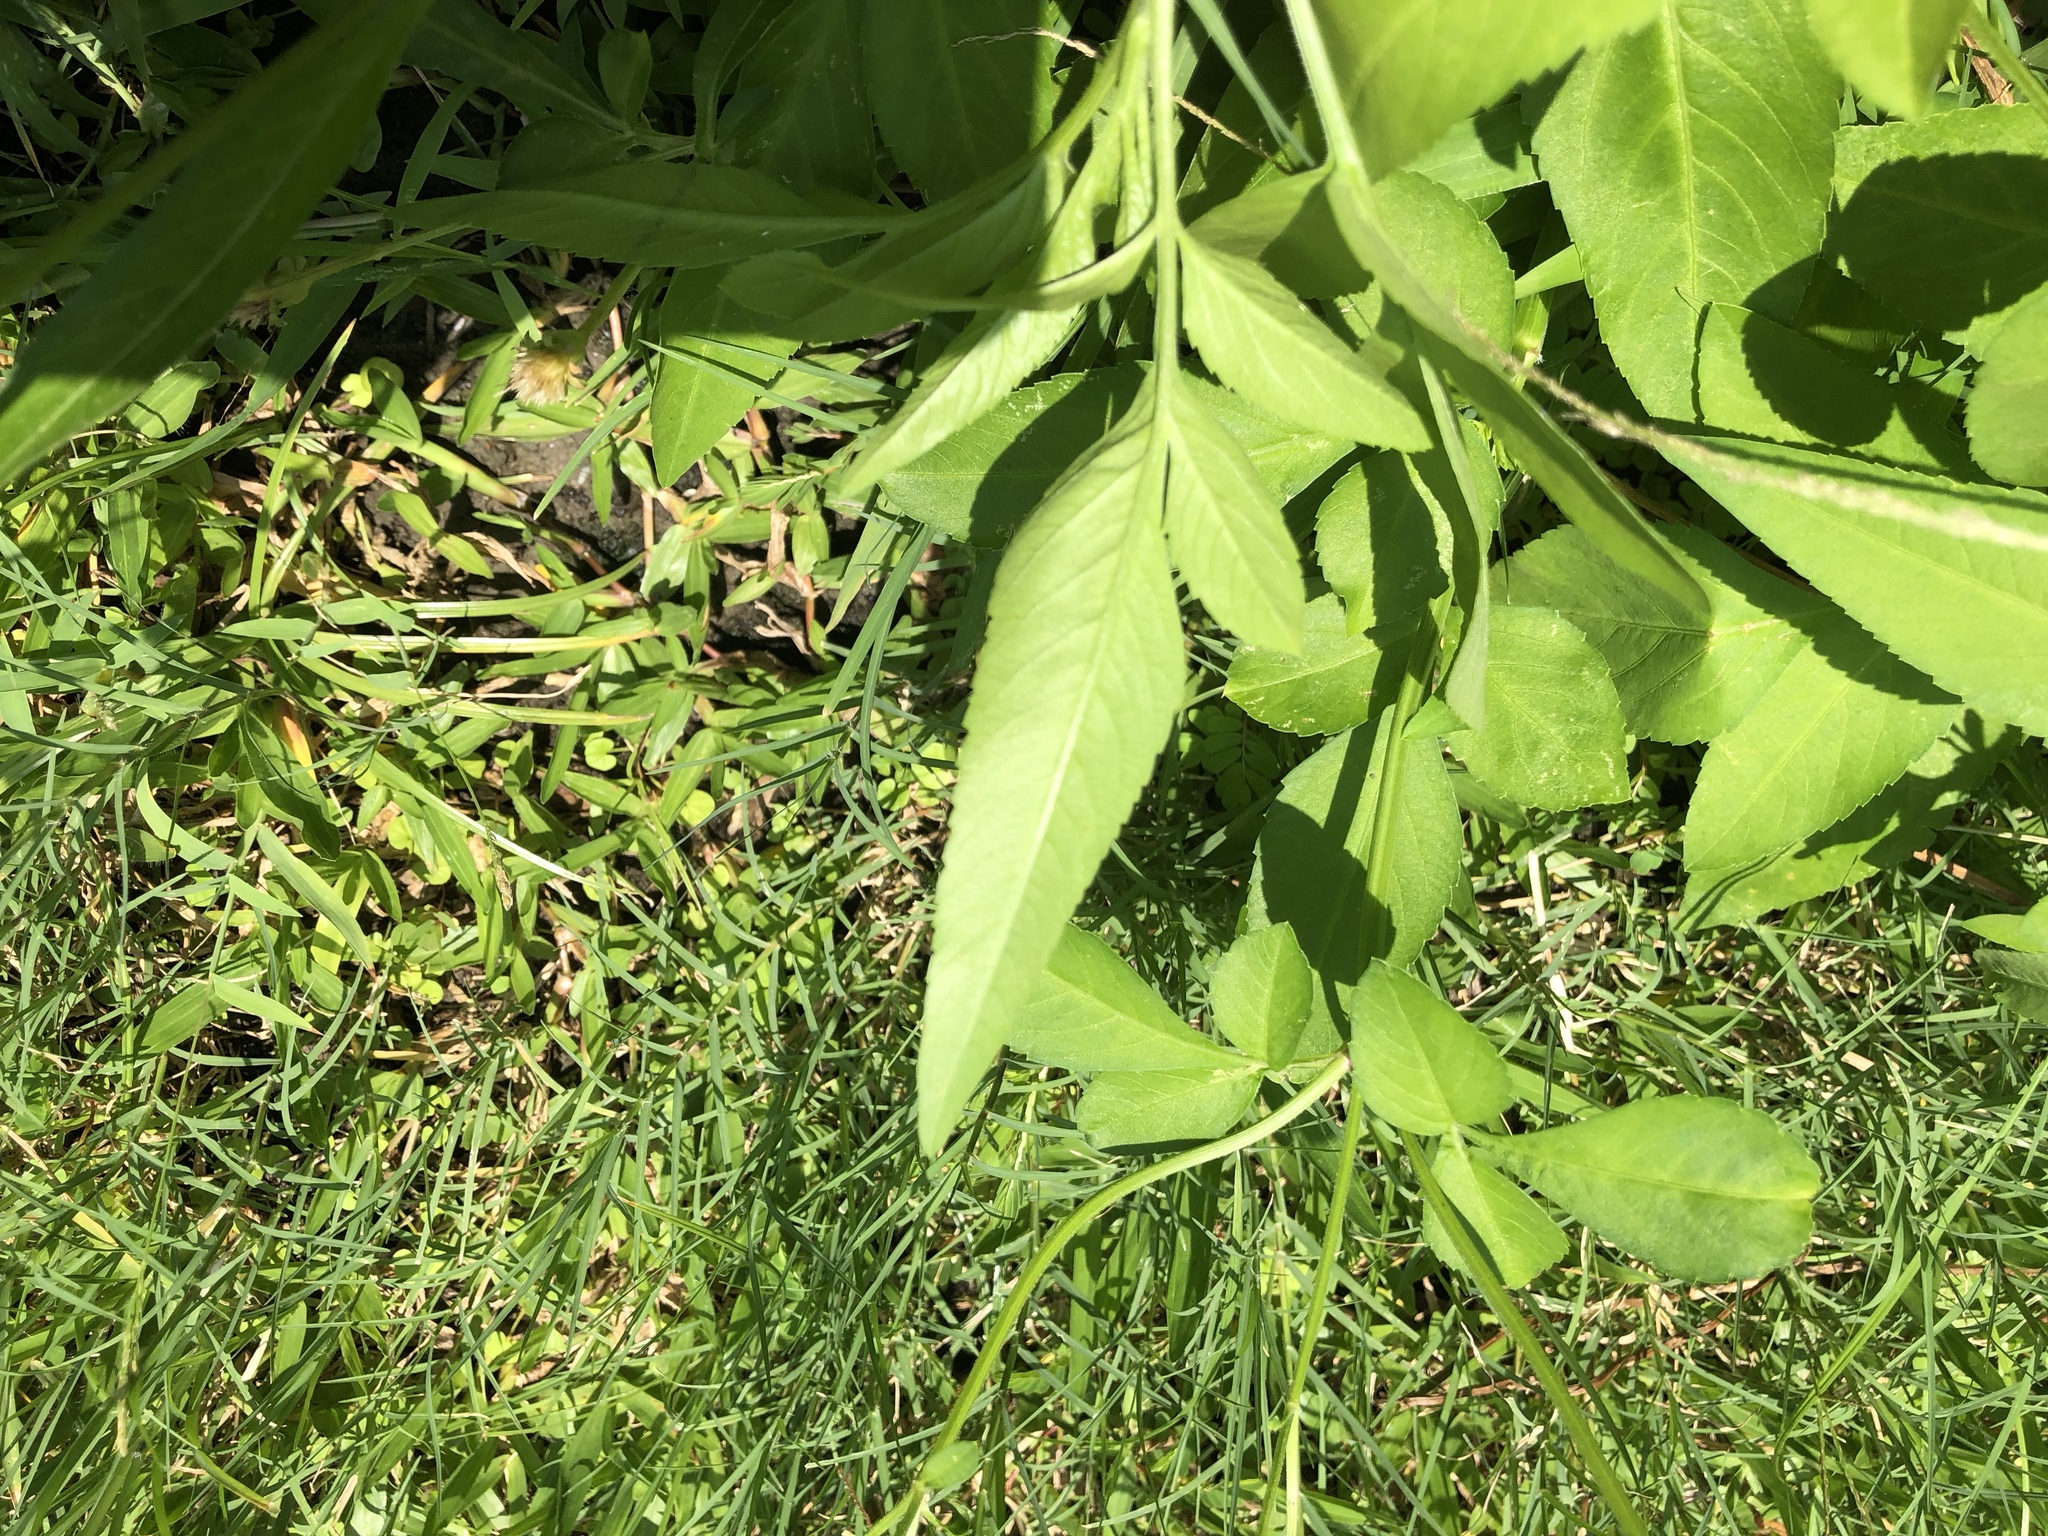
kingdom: Plantae
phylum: Tracheophyta
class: Magnoliopsida
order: Asterales
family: Asteraceae
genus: Bidens
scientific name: Bidens alba
